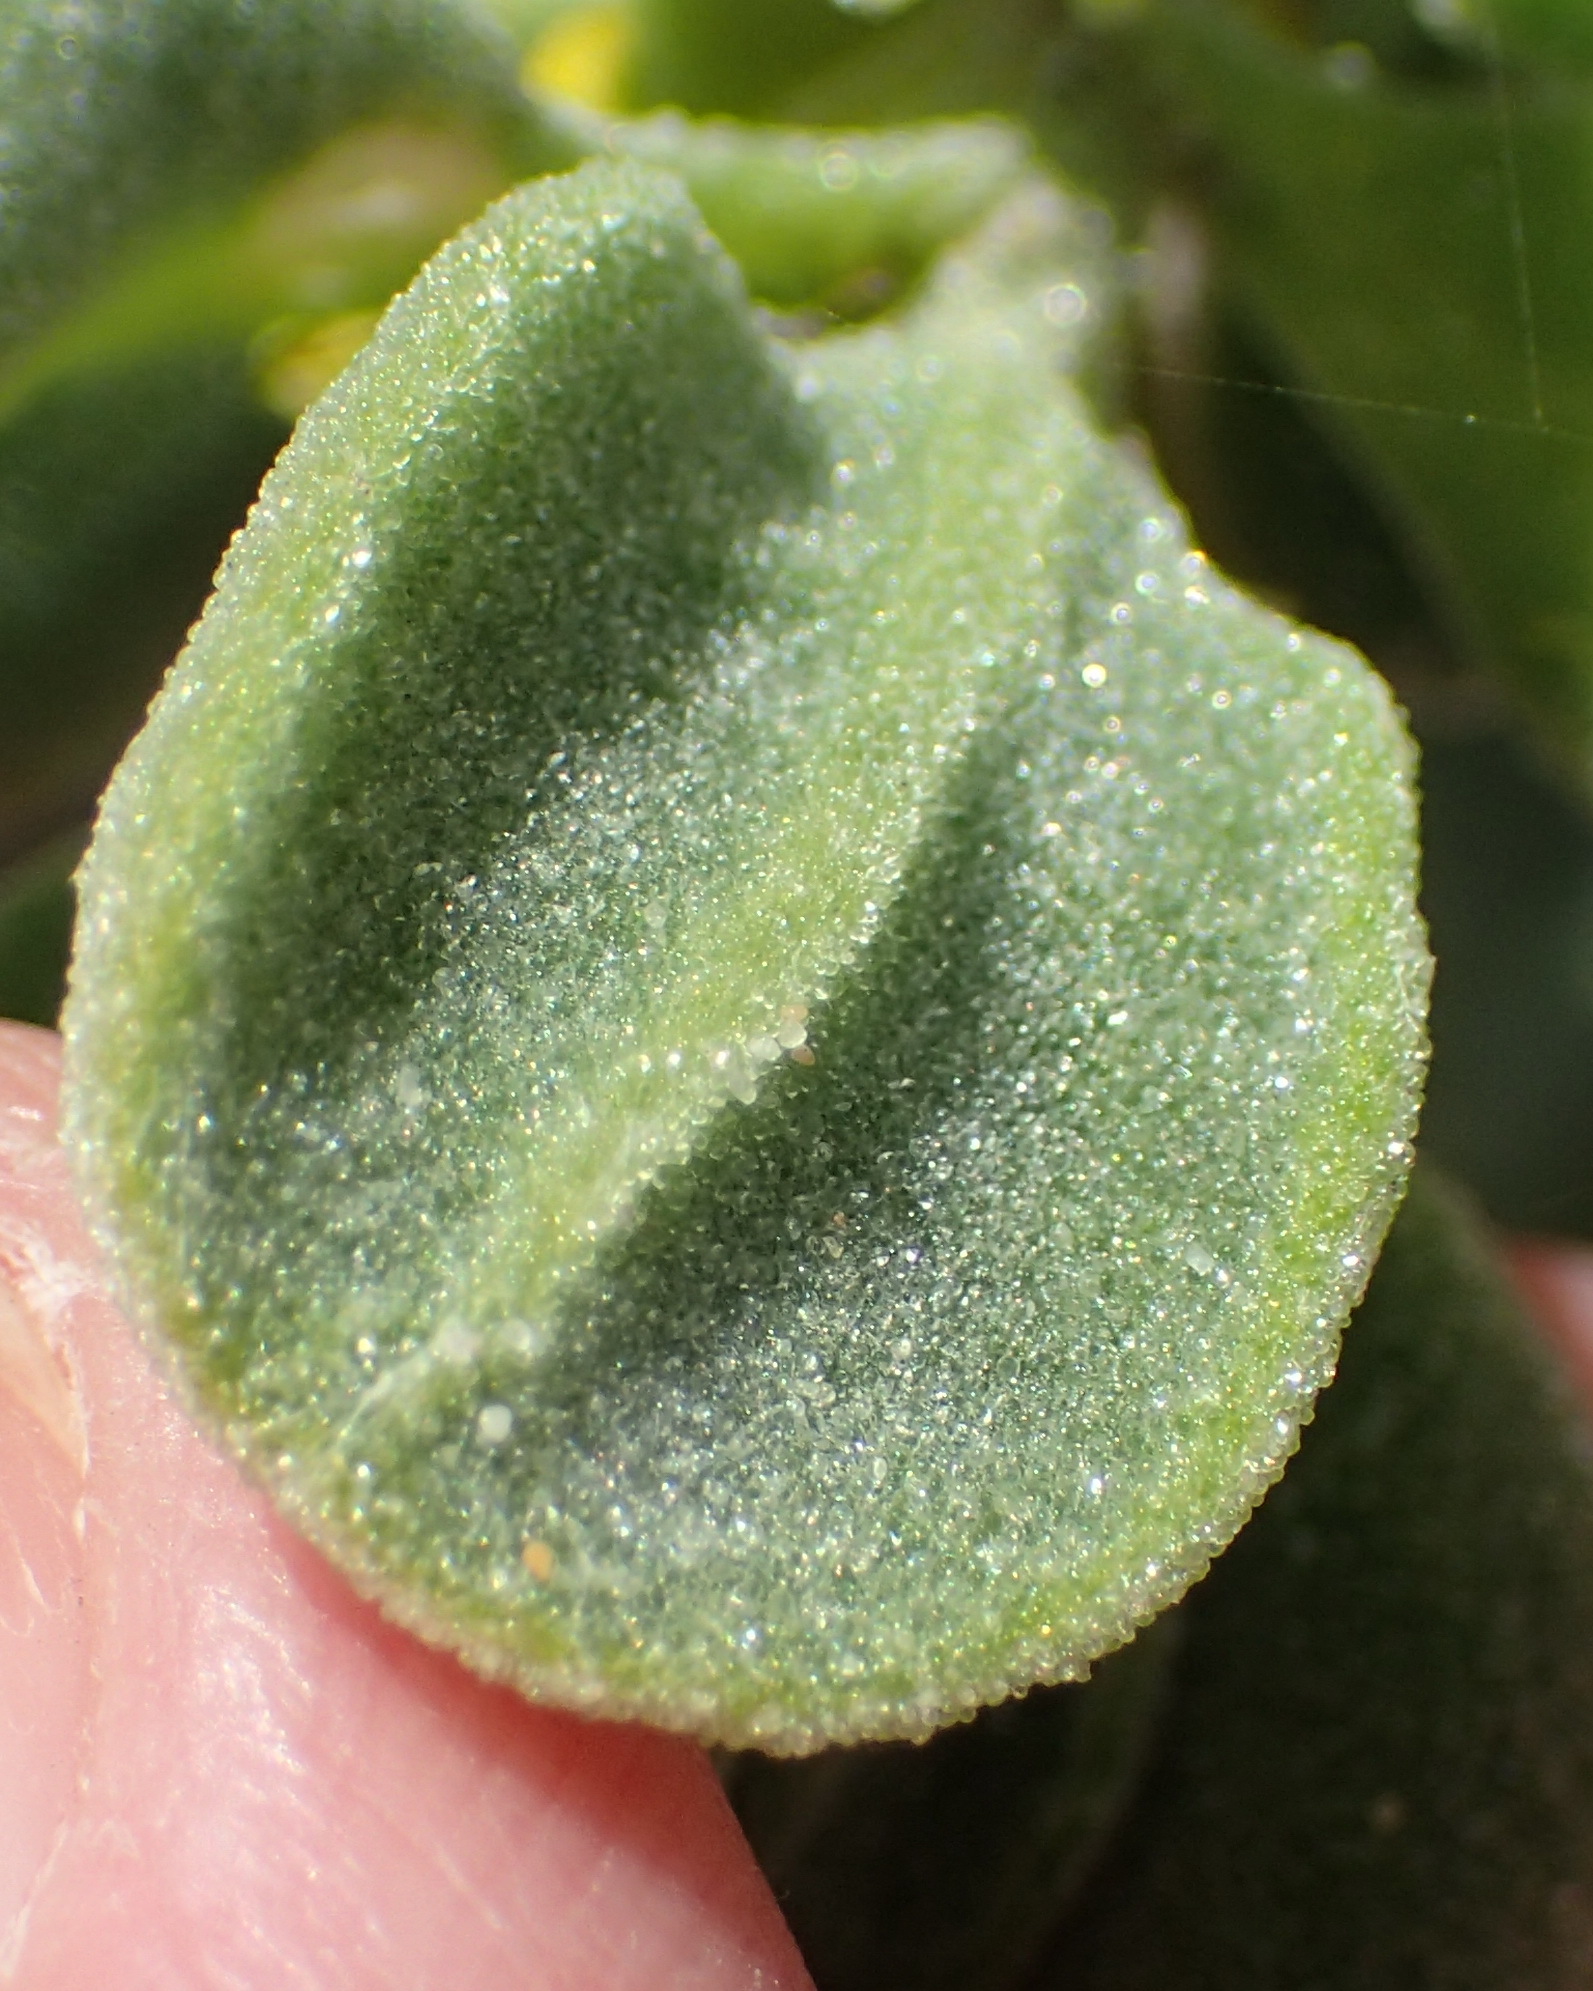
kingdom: Plantae
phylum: Tracheophyta
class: Magnoliopsida
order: Caryophyllales
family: Aizoaceae
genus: Tetragonia
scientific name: Tetragonia decumbens
